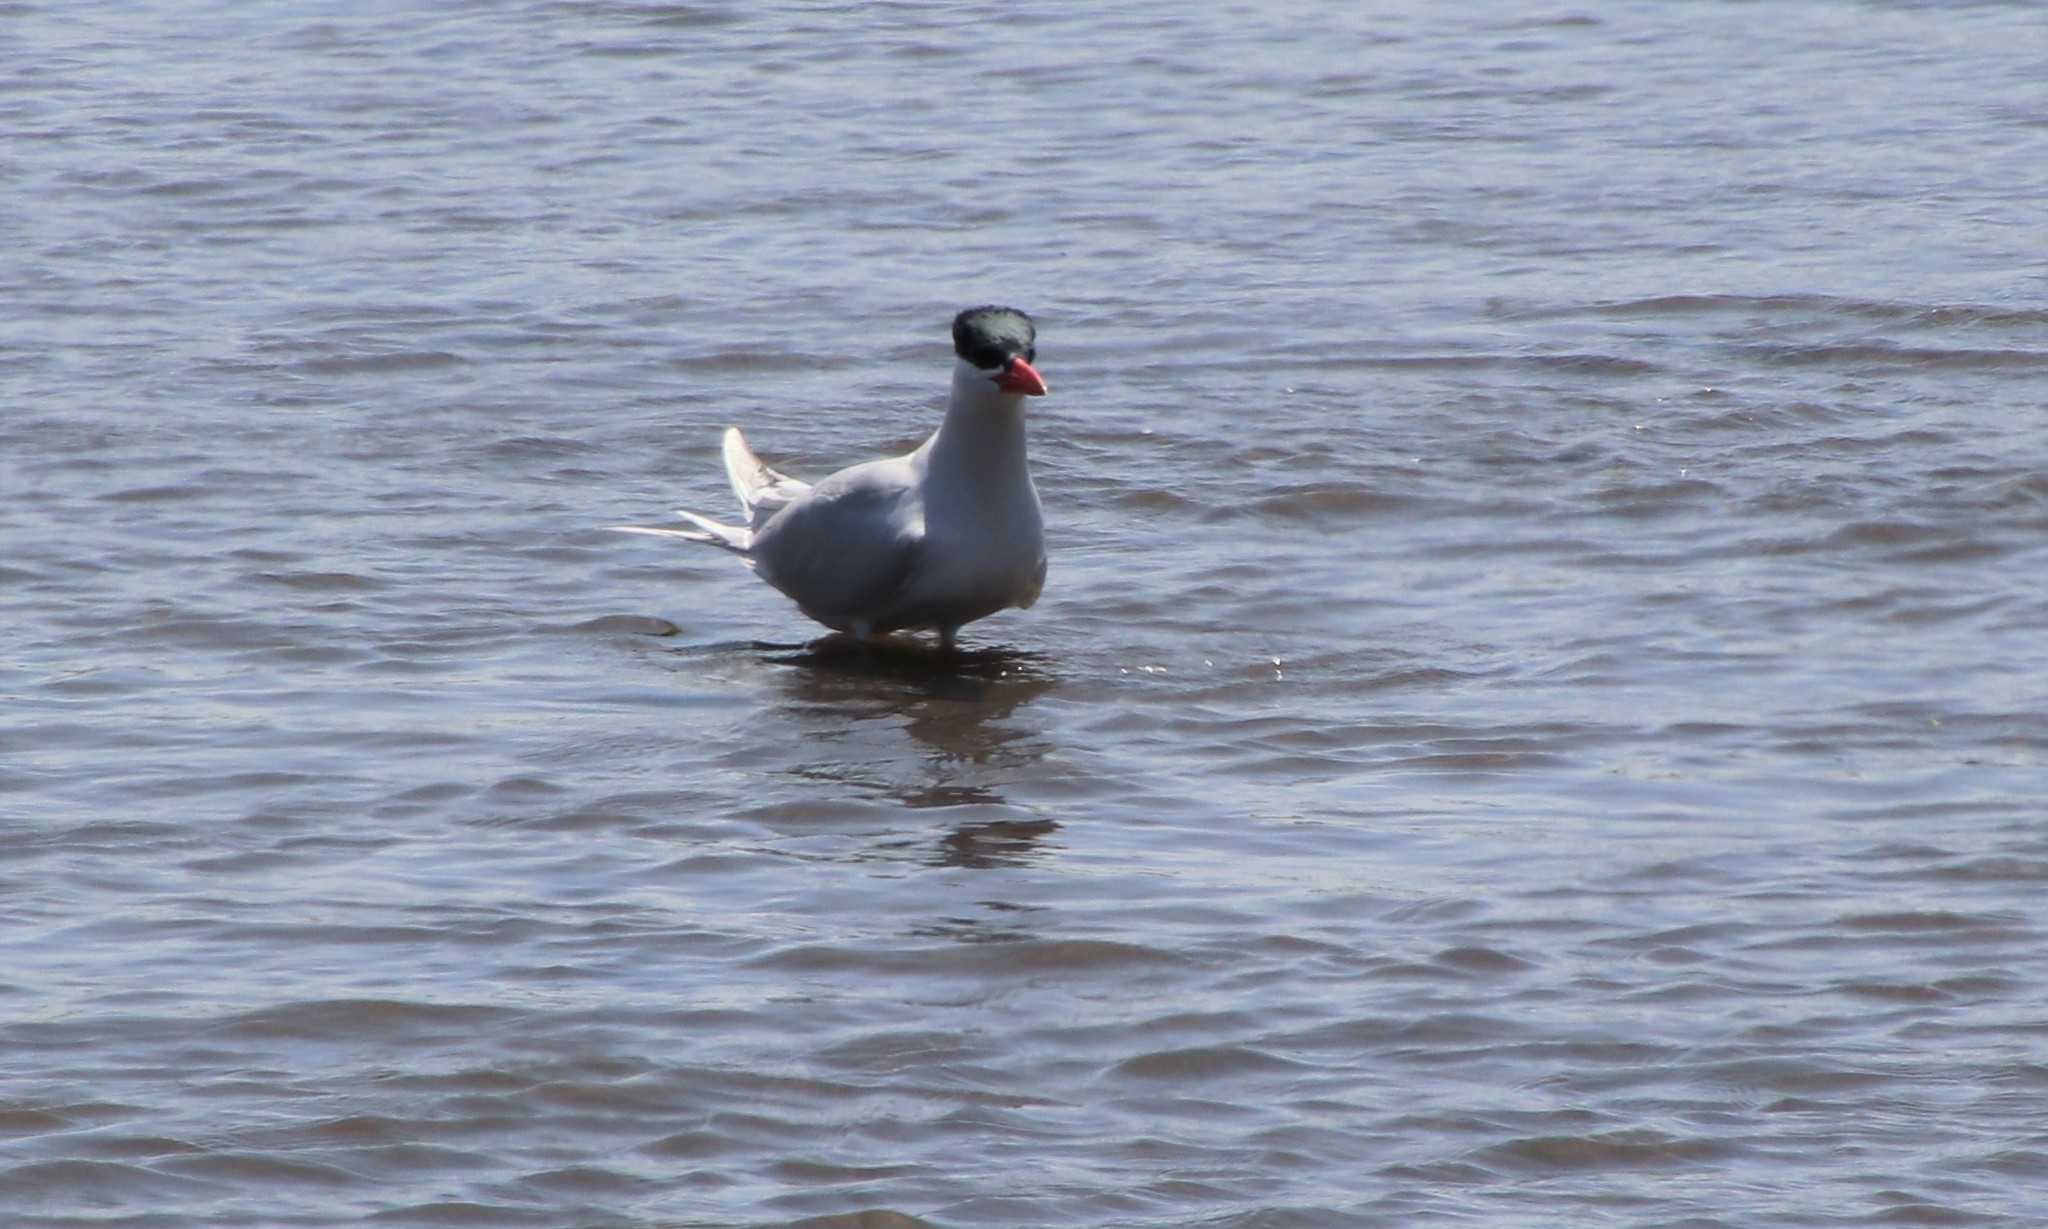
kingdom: Animalia
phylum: Chordata
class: Aves
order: Charadriiformes
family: Laridae
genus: Hydroprogne
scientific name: Hydroprogne caspia
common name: Caspian tern
